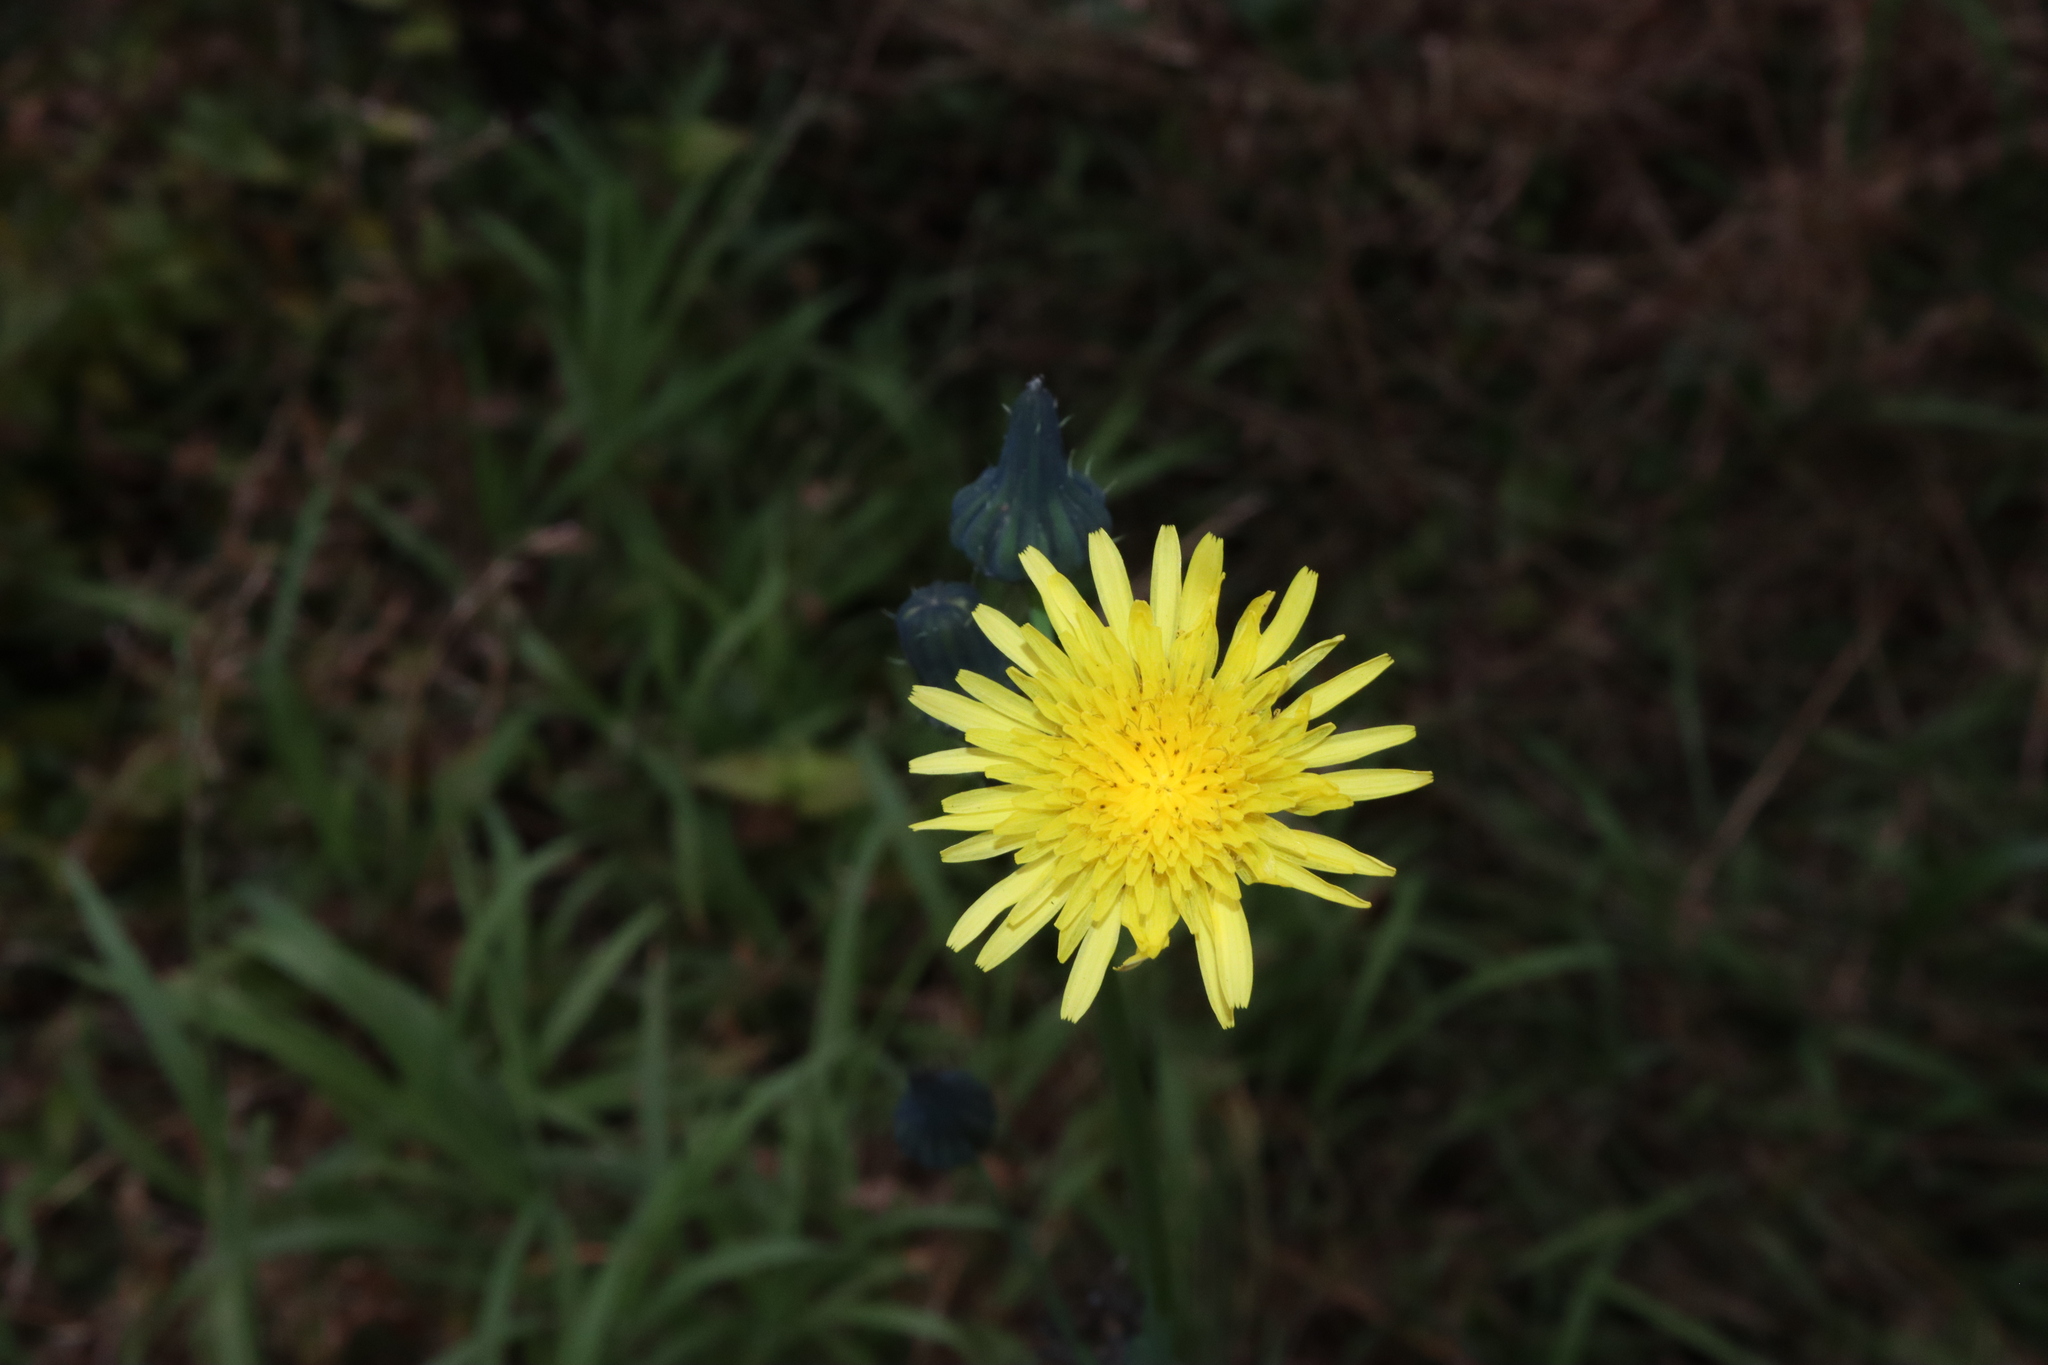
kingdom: Plantae
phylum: Tracheophyta
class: Magnoliopsida
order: Asterales
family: Asteraceae
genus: Sonchus
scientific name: Sonchus oleraceus
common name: Common sowthistle
